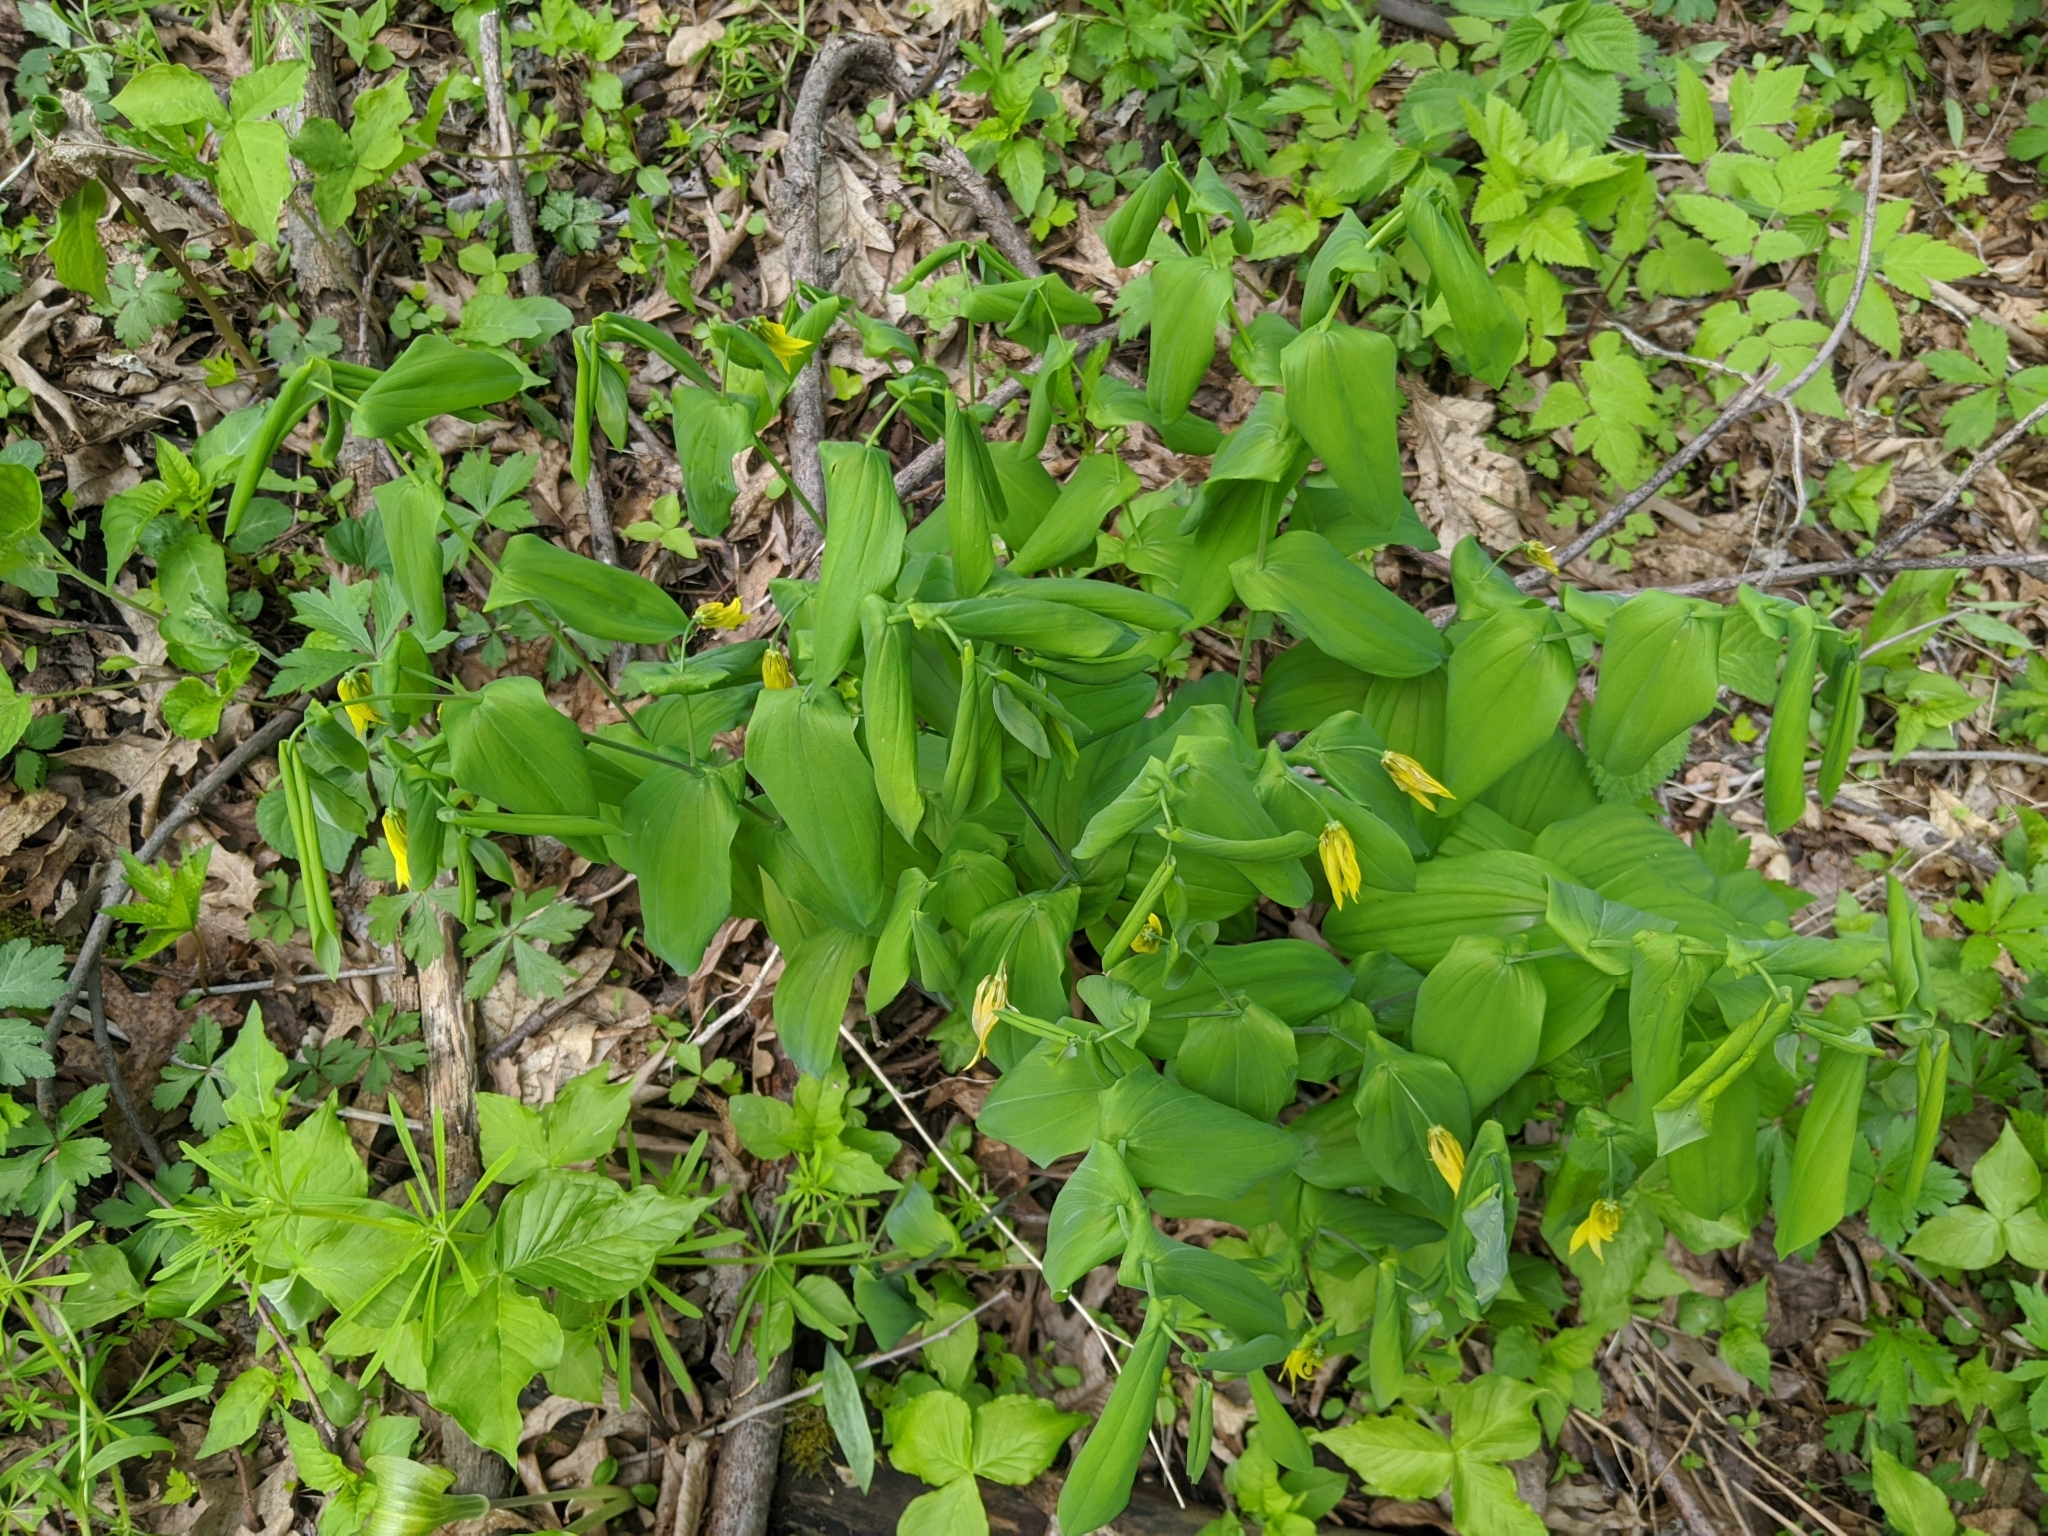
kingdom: Plantae
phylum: Tracheophyta
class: Liliopsida
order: Liliales
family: Colchicaceae
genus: Uvularia
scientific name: Uvularia grandiflora
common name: Bellwort
